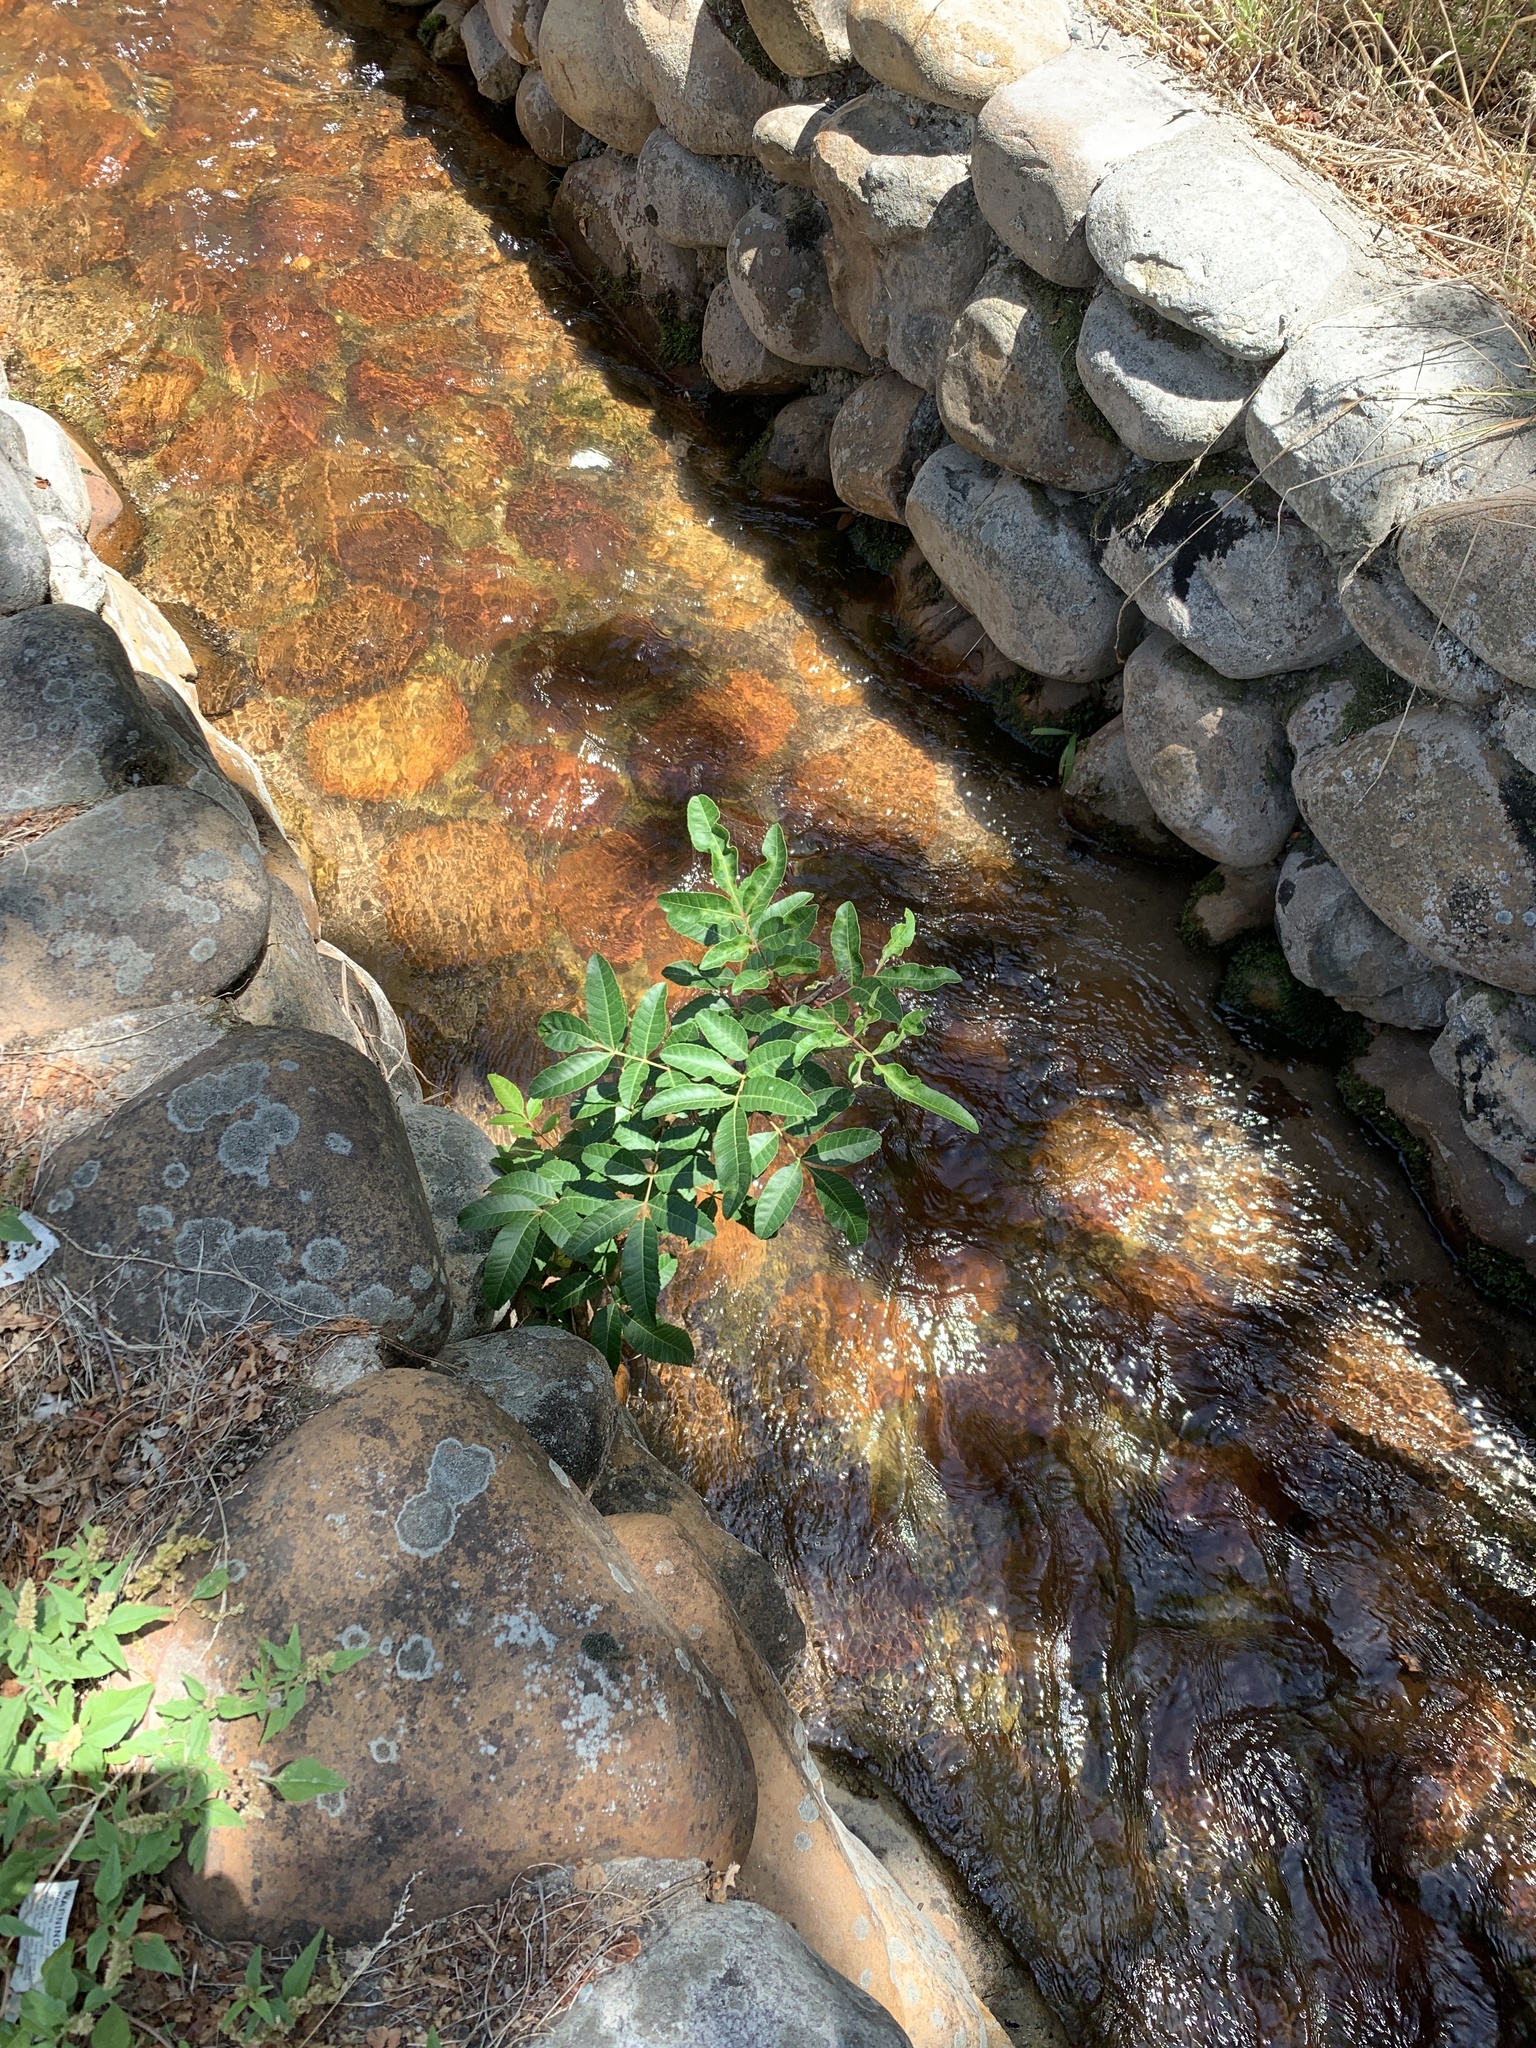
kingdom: Plantae
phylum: Tracheophyta
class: Magnoliopsida
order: Sapindales
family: Anacardiaceae
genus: Schinus
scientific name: Schinus terebinthifolia
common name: Brazilian peppertree
